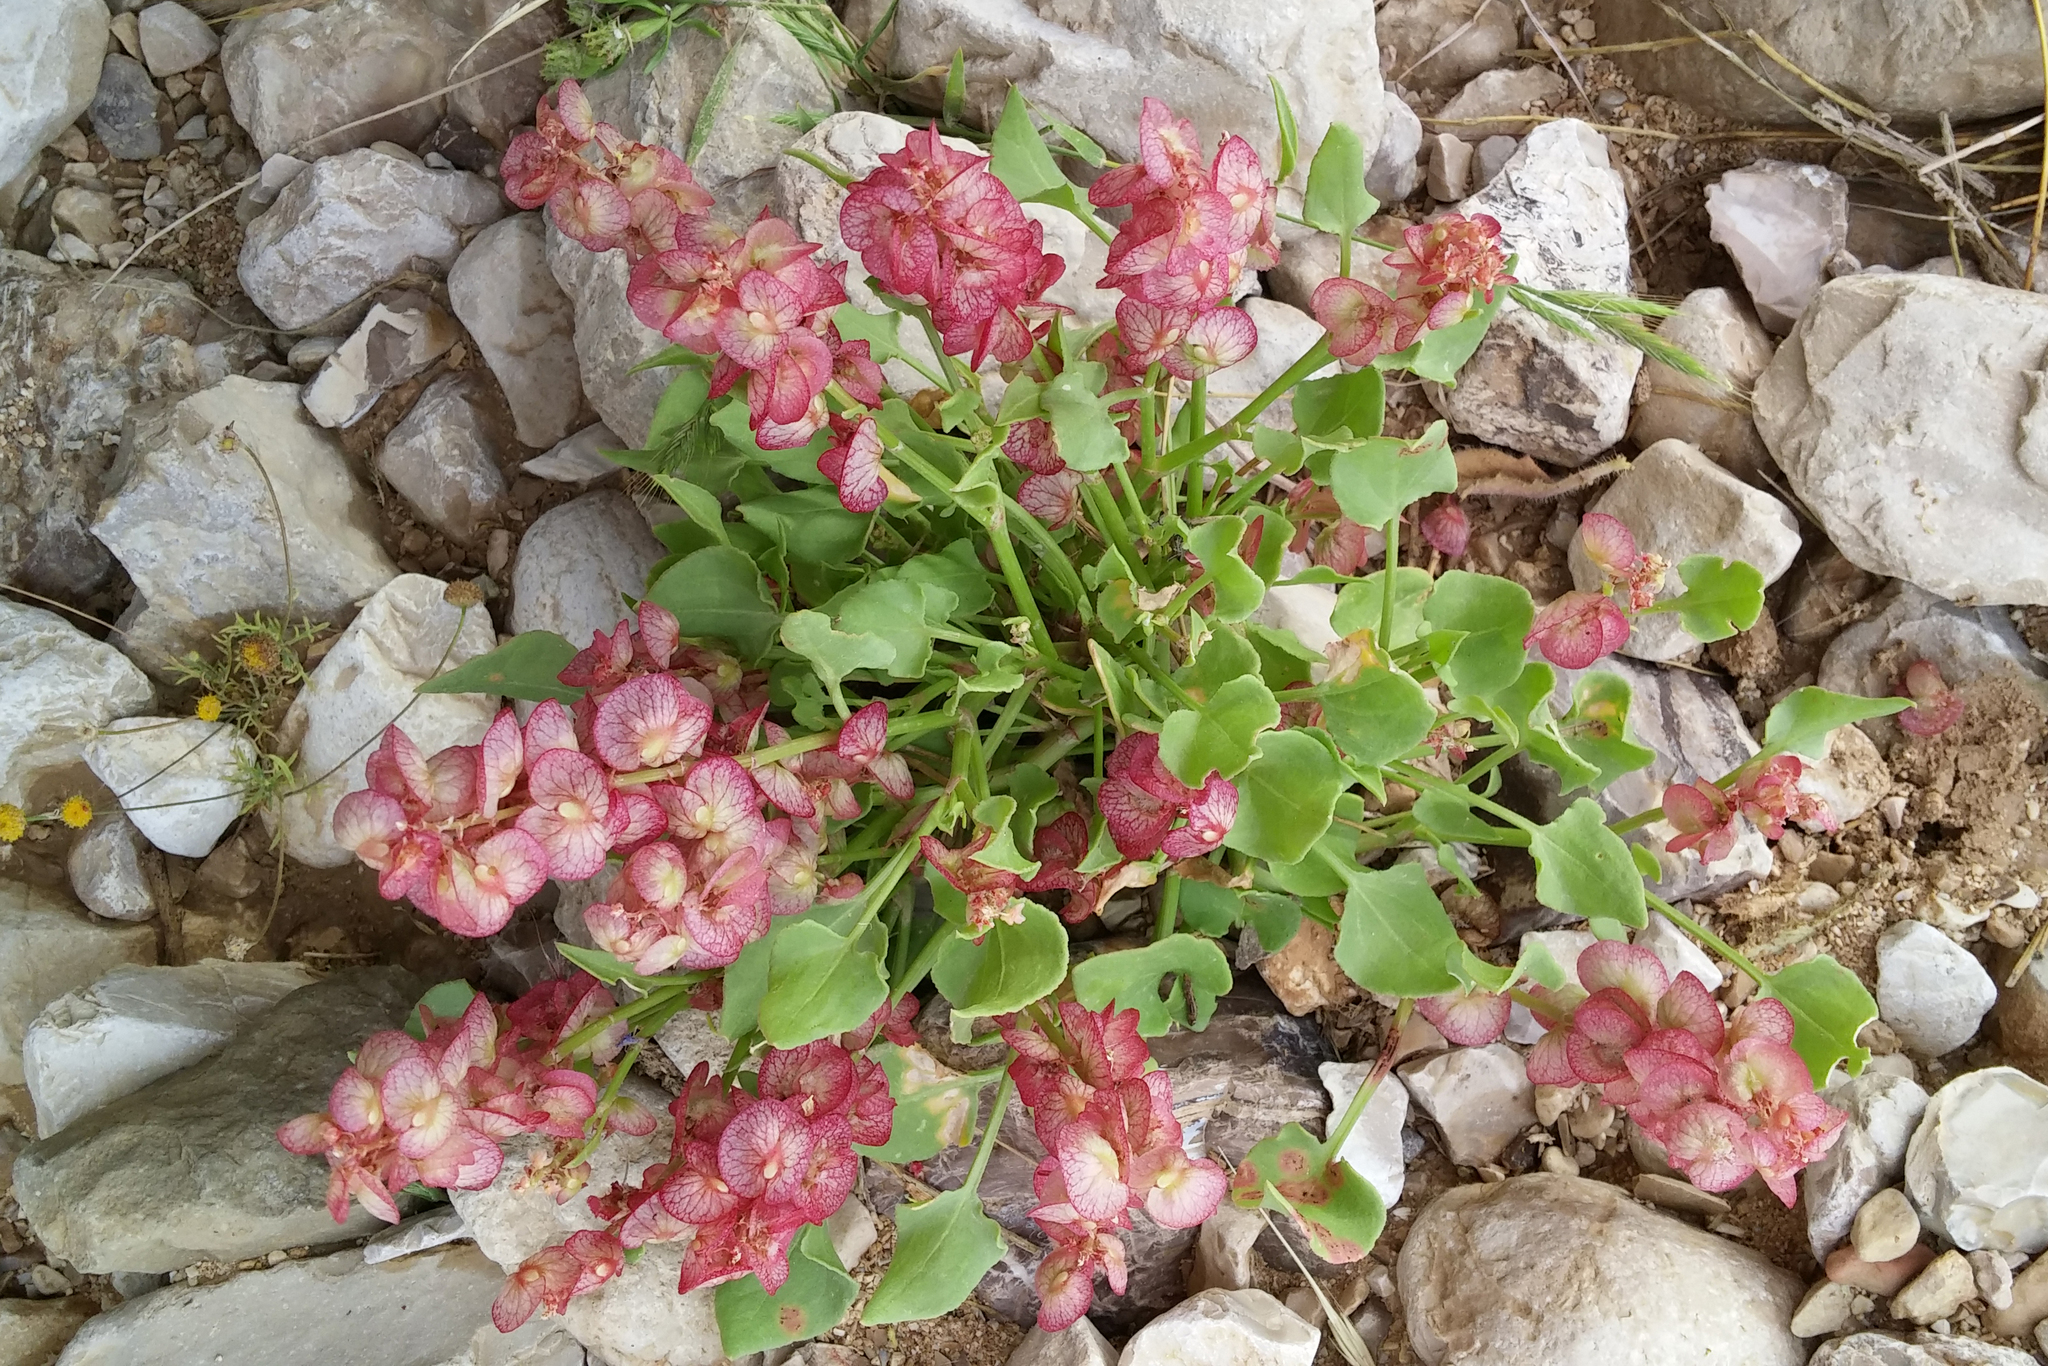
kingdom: Plantae
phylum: Tracheophyta
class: Magnoliopsida
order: Caryophyllales
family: Polygonaceae
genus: Rumex
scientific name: Rumex cyprius
